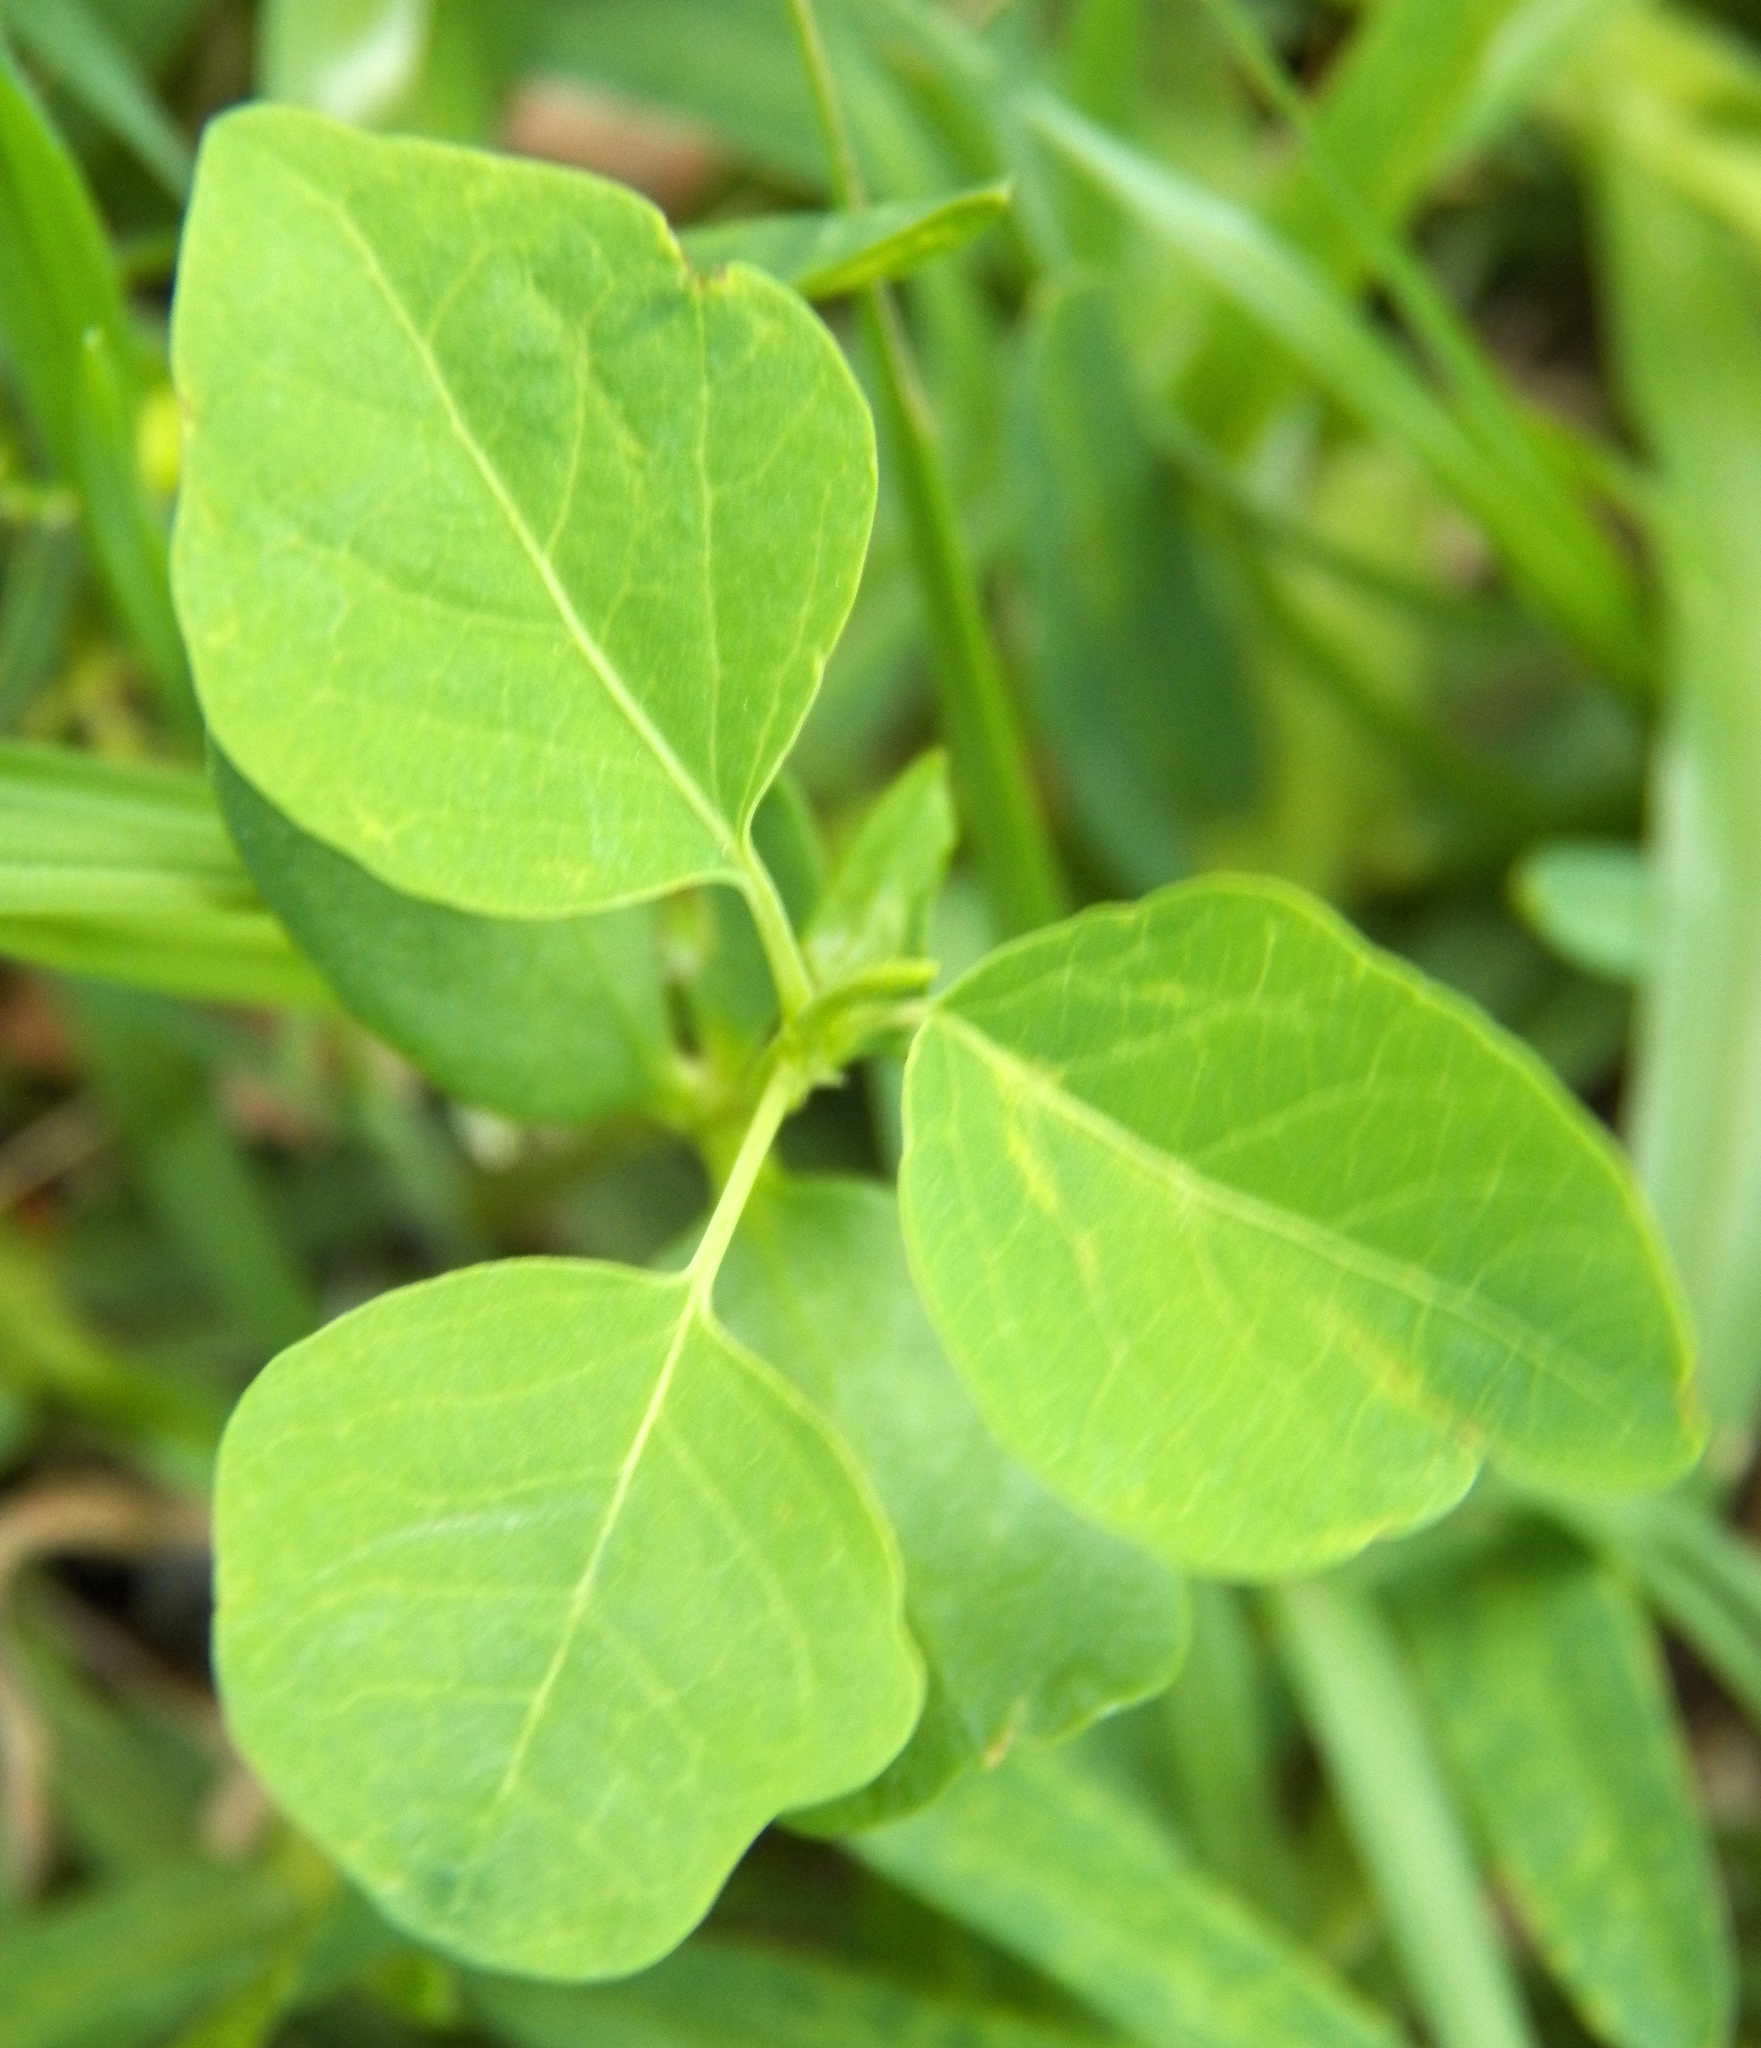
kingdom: Plantae
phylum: Tracheophyta
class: Magnoliopsida
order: Malpighiales
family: Euphorbiaceae
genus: Triadica
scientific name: Triadica sebifera
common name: Chinese tallow
